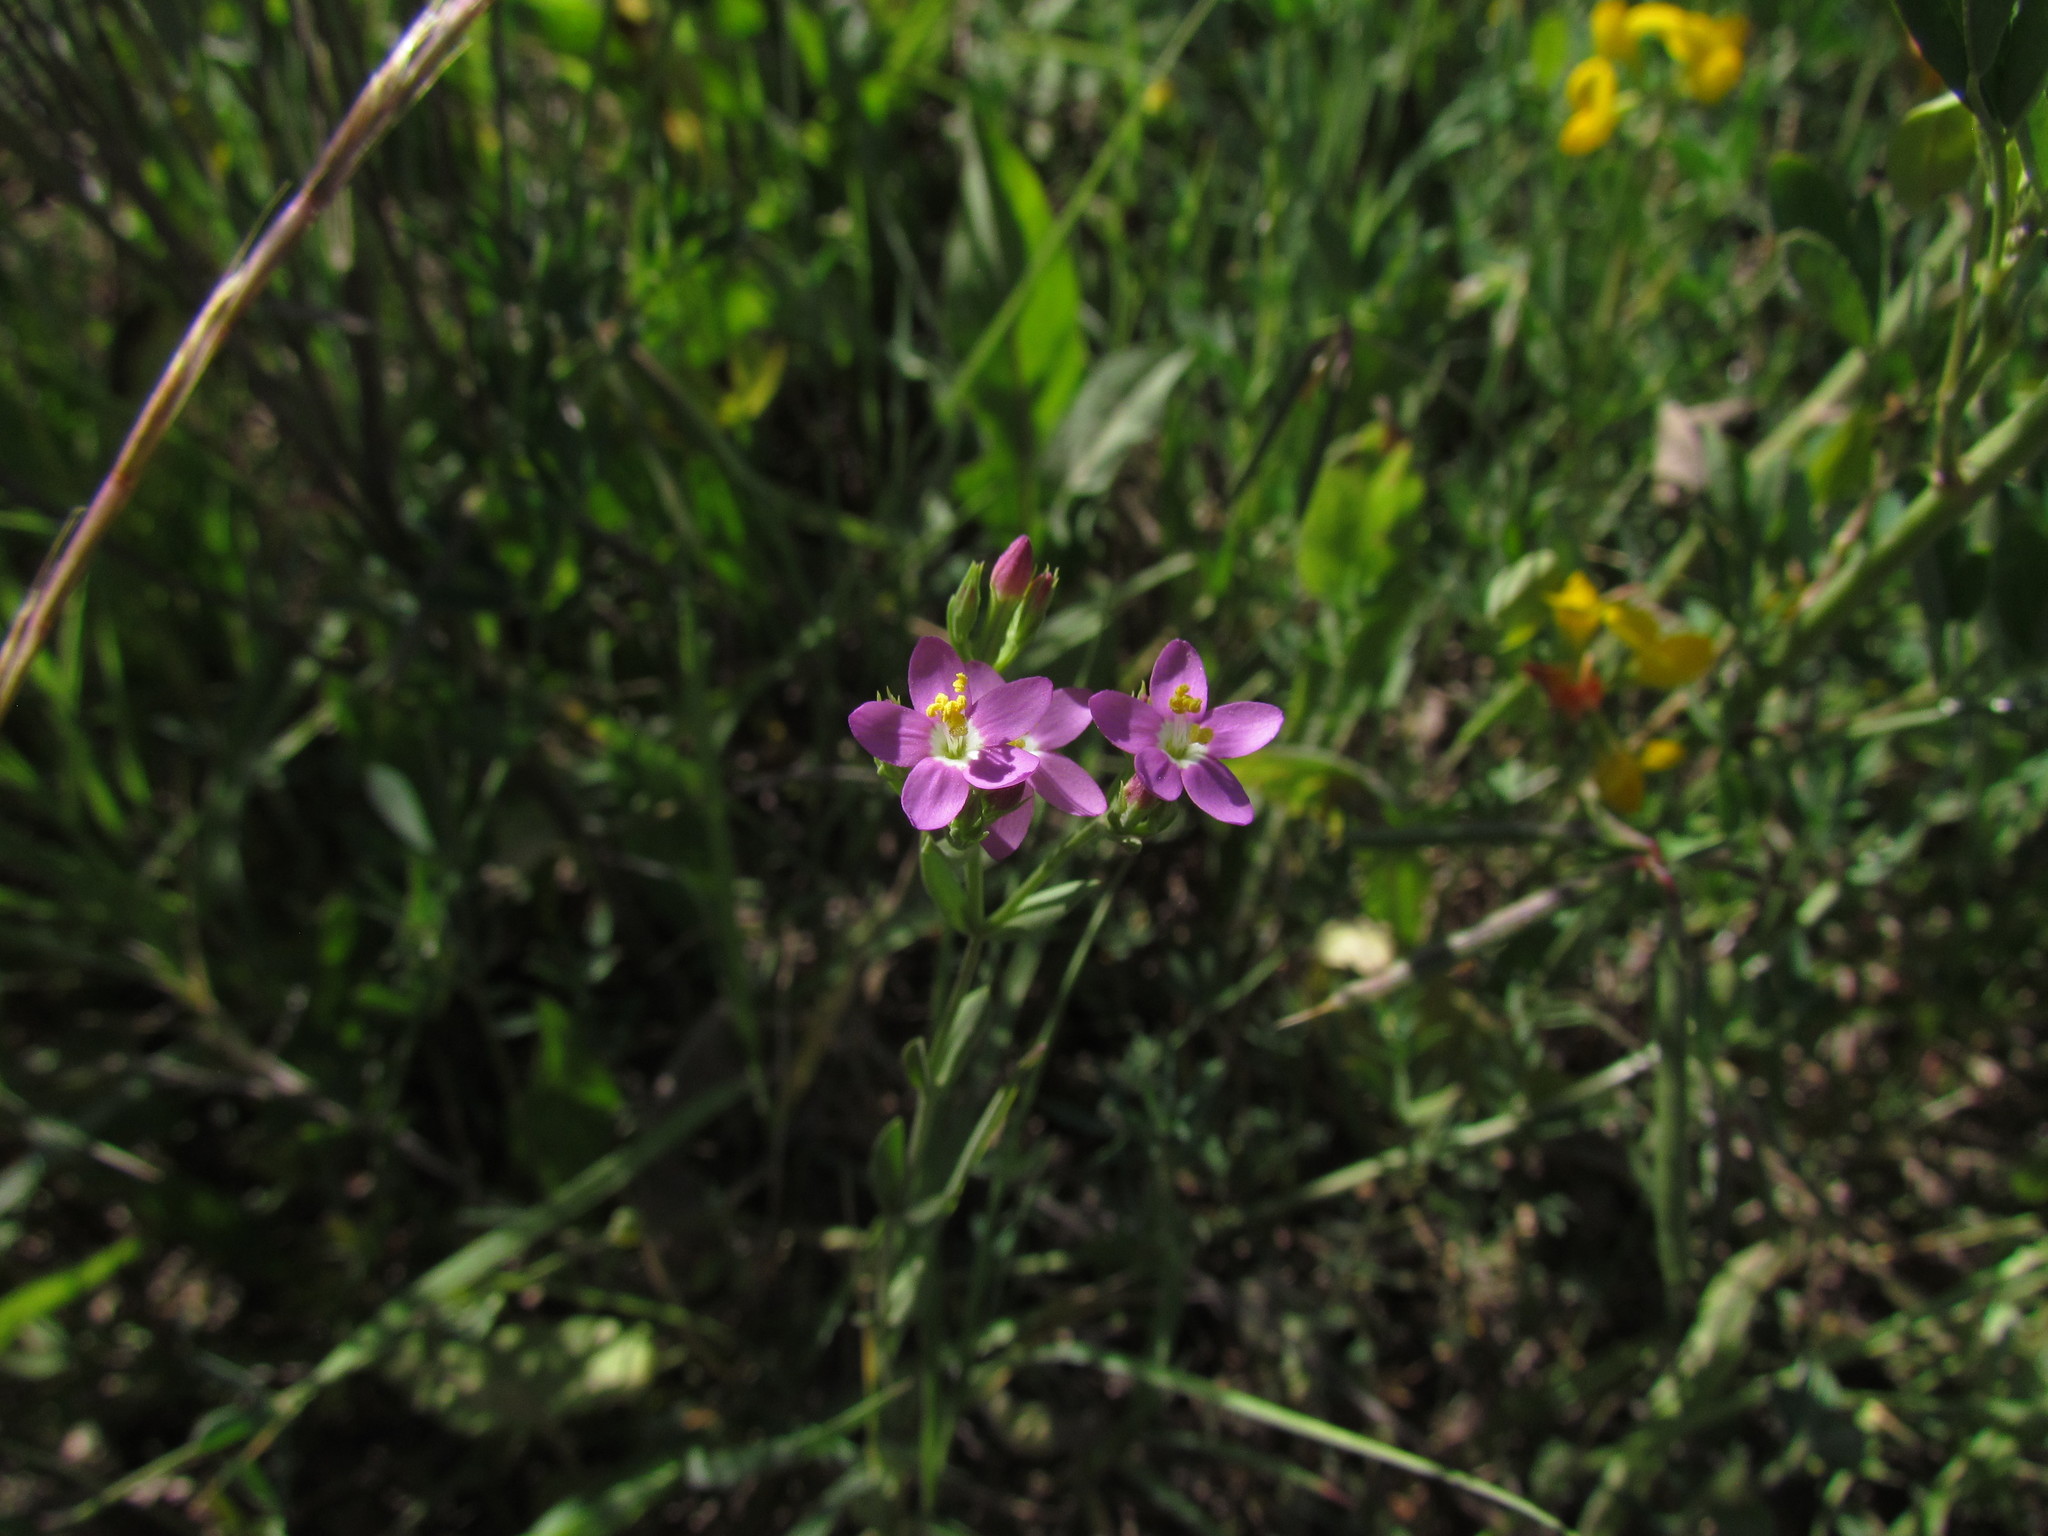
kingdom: Plantae
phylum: Tracheophyta
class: Magnoliopsida
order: Gentianales
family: Gentianaceae
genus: Centaurium
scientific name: Centaurium pulchellum
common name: Lesser centaury
